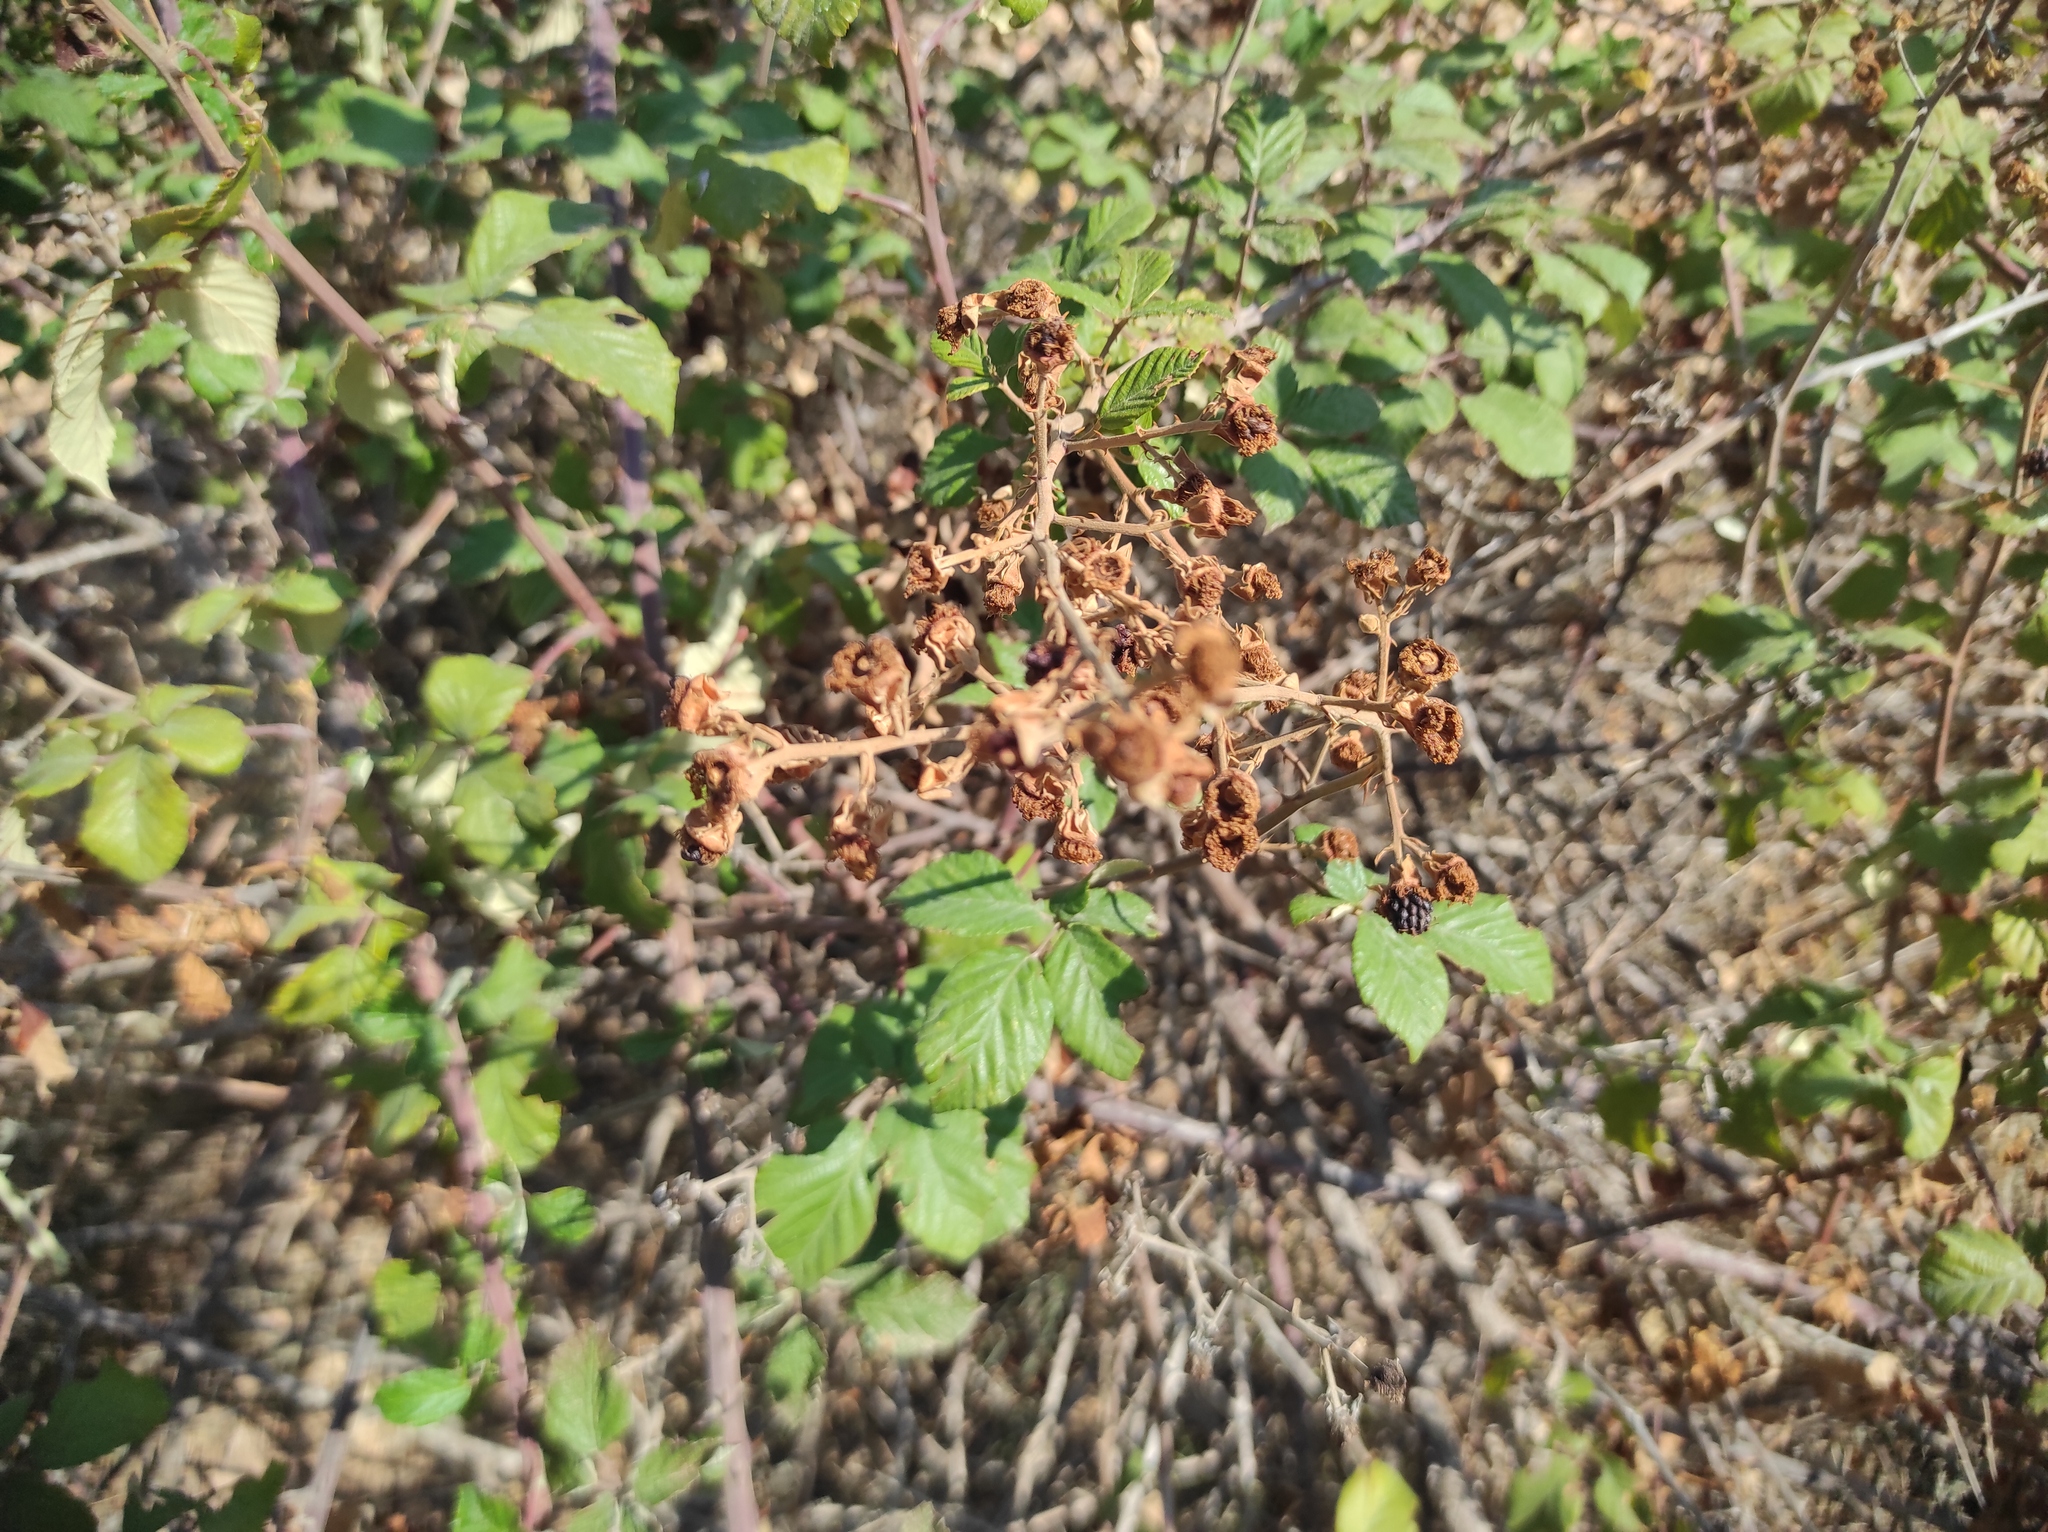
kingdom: Plantae
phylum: Tracheophyta
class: Magnoliopsida
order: Rosales
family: Rosaceae
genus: Rubus
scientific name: Rubus ulmifolius
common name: Elmleaf blackberry
